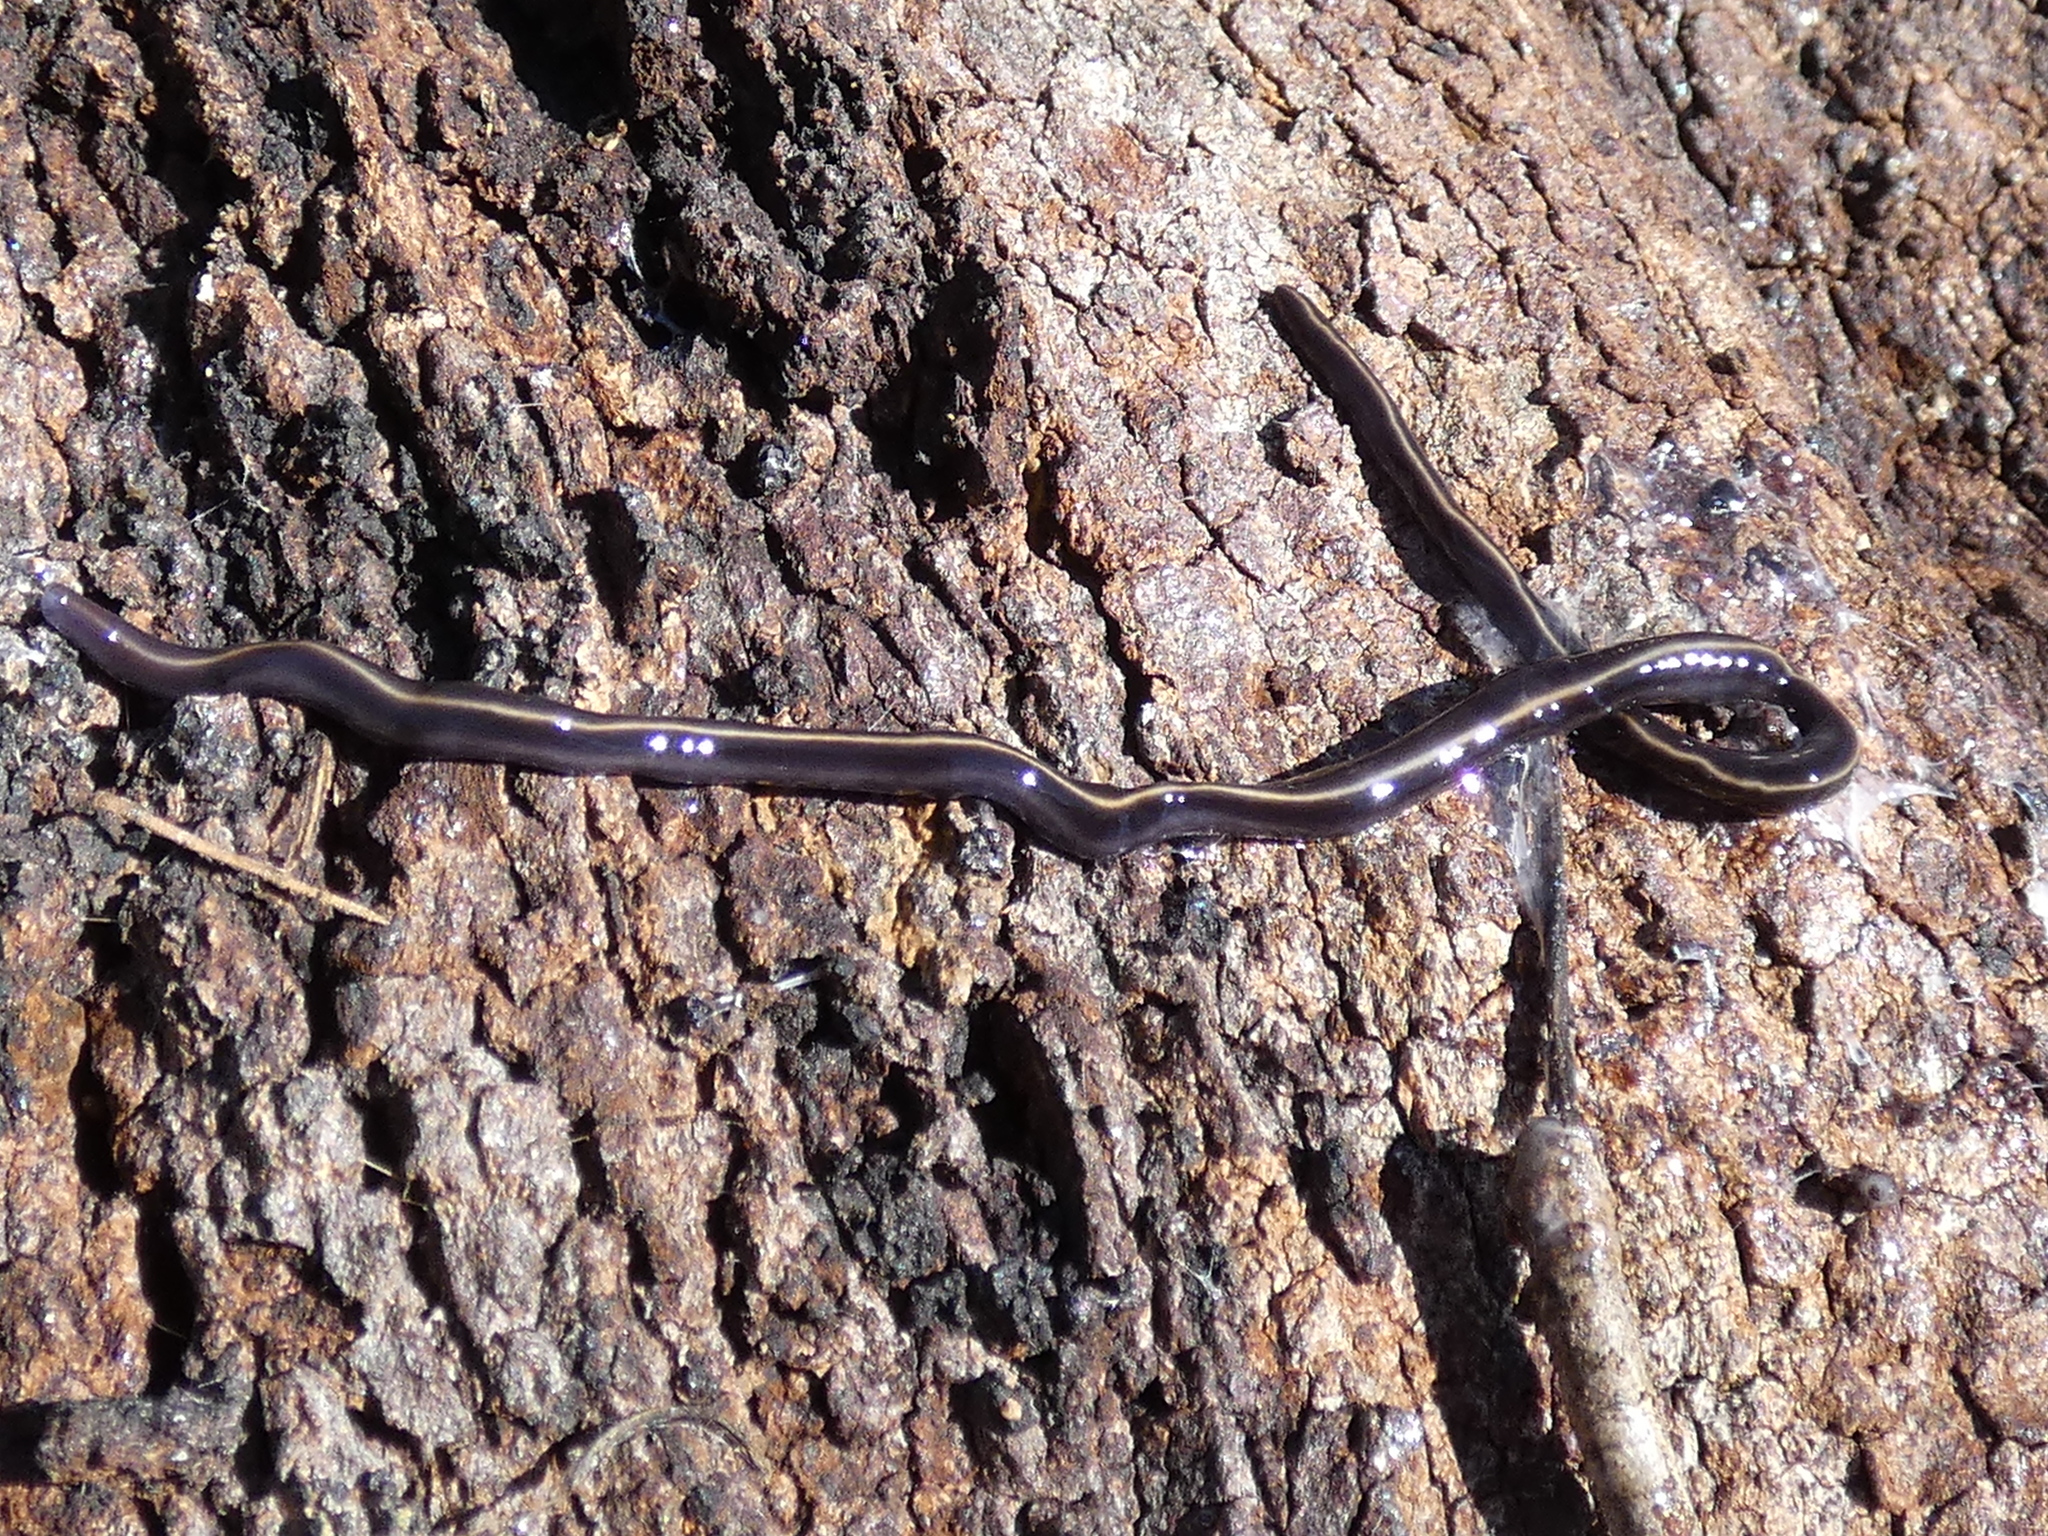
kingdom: Animalia
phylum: Platyhelminthes
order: Tricladida
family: Geoplanidae
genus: Caenoplana
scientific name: Caenoplana coerulea
